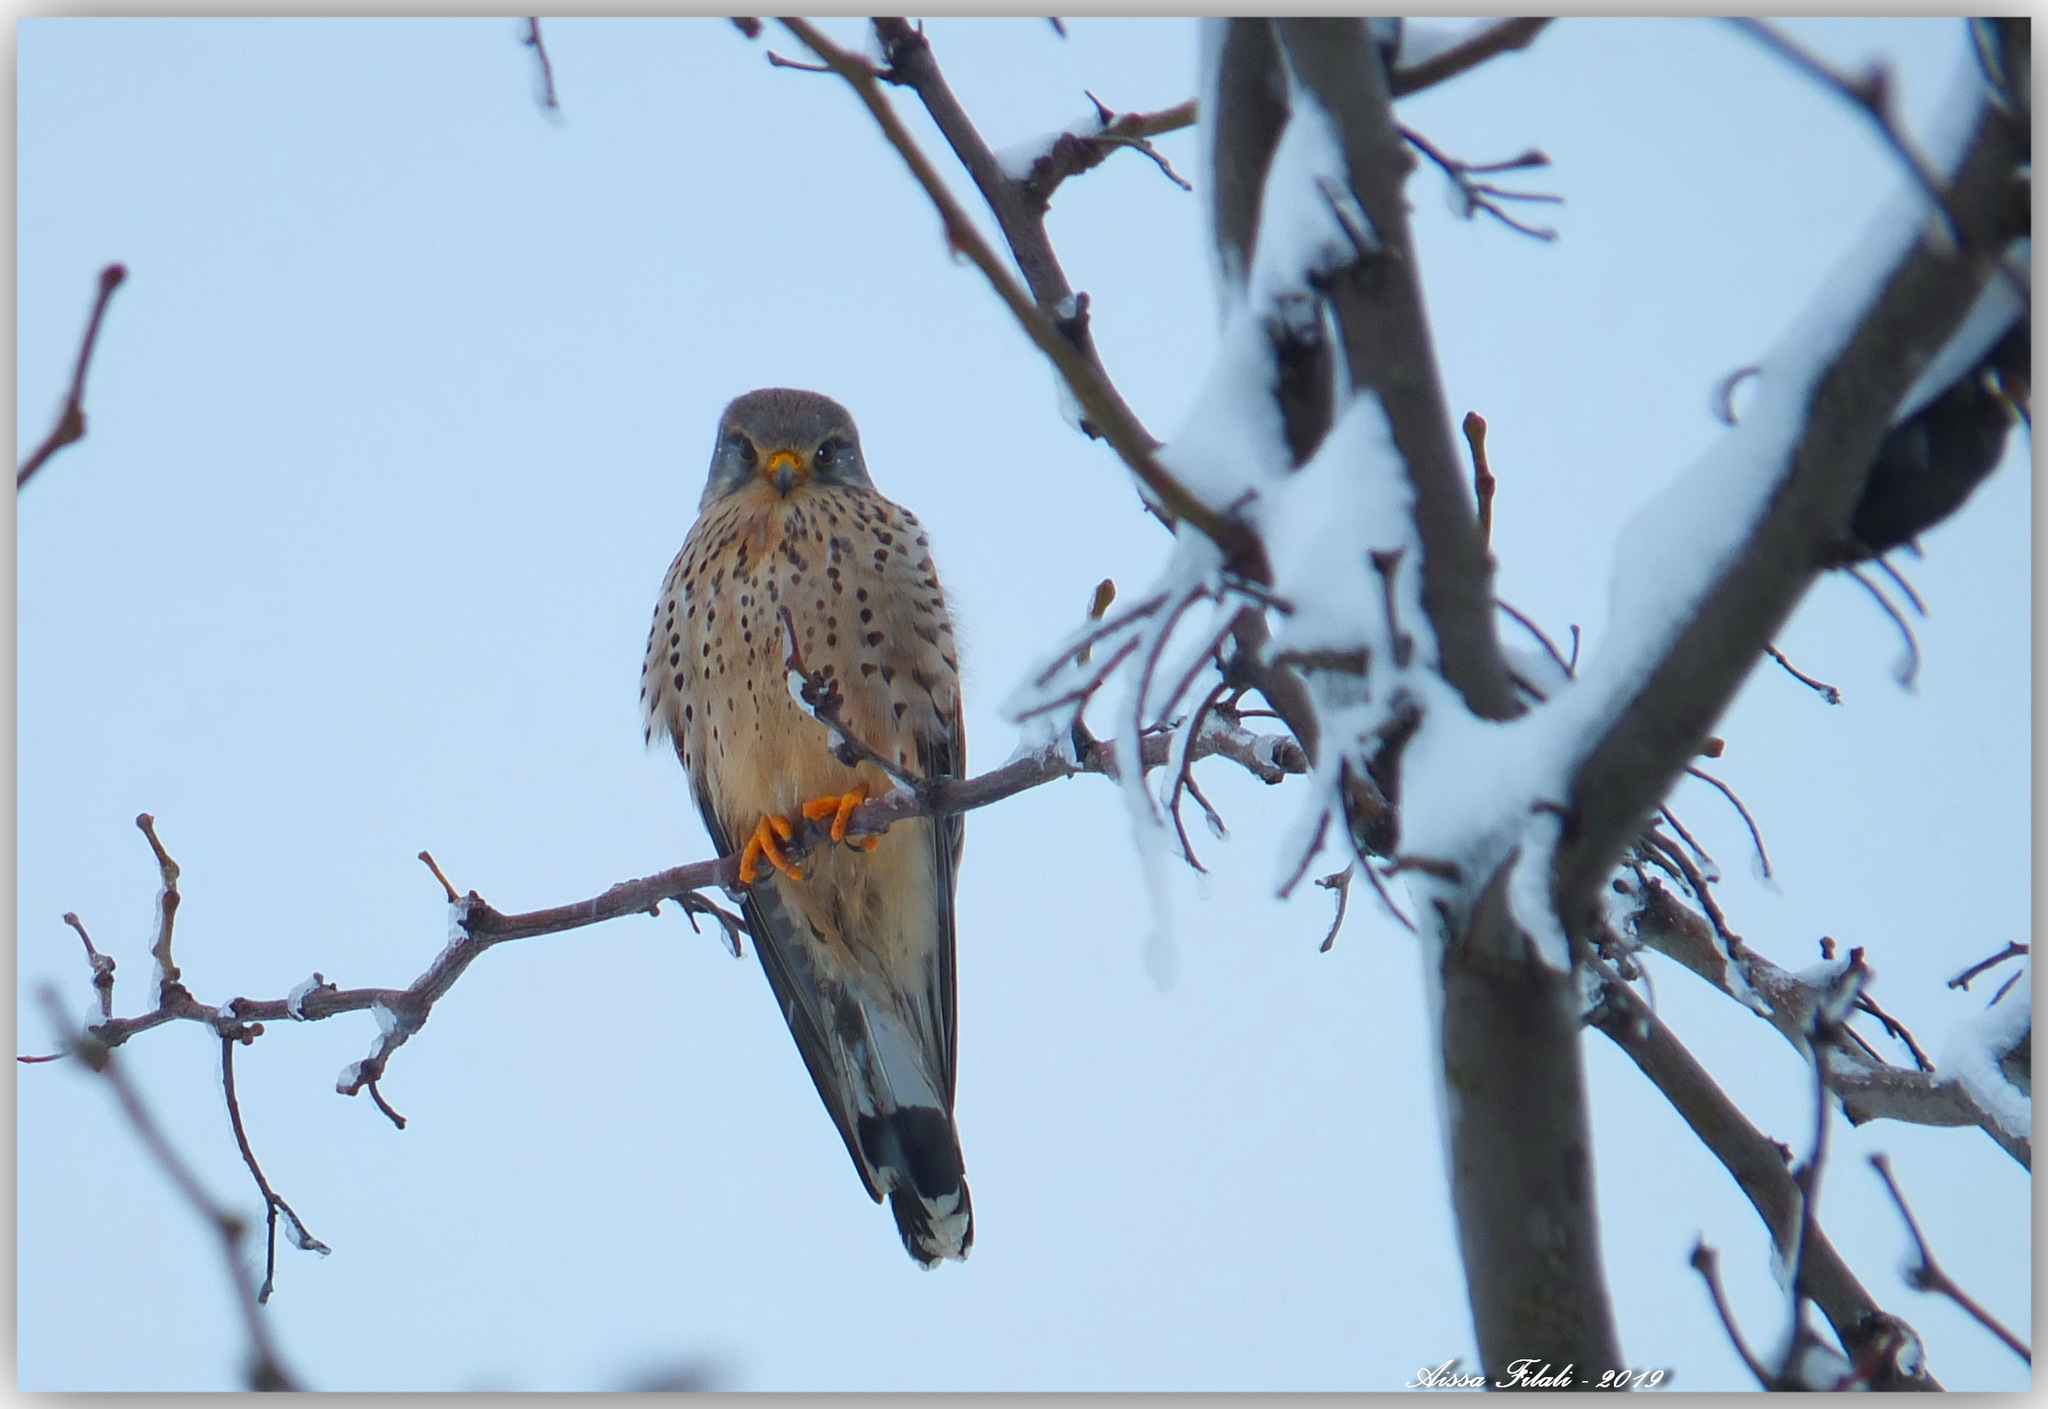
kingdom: Animalia
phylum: Chordata
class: Aves
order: Falconiformes
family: Falconidae
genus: Falco
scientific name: Falco tinnunculus
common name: Common kestrel
